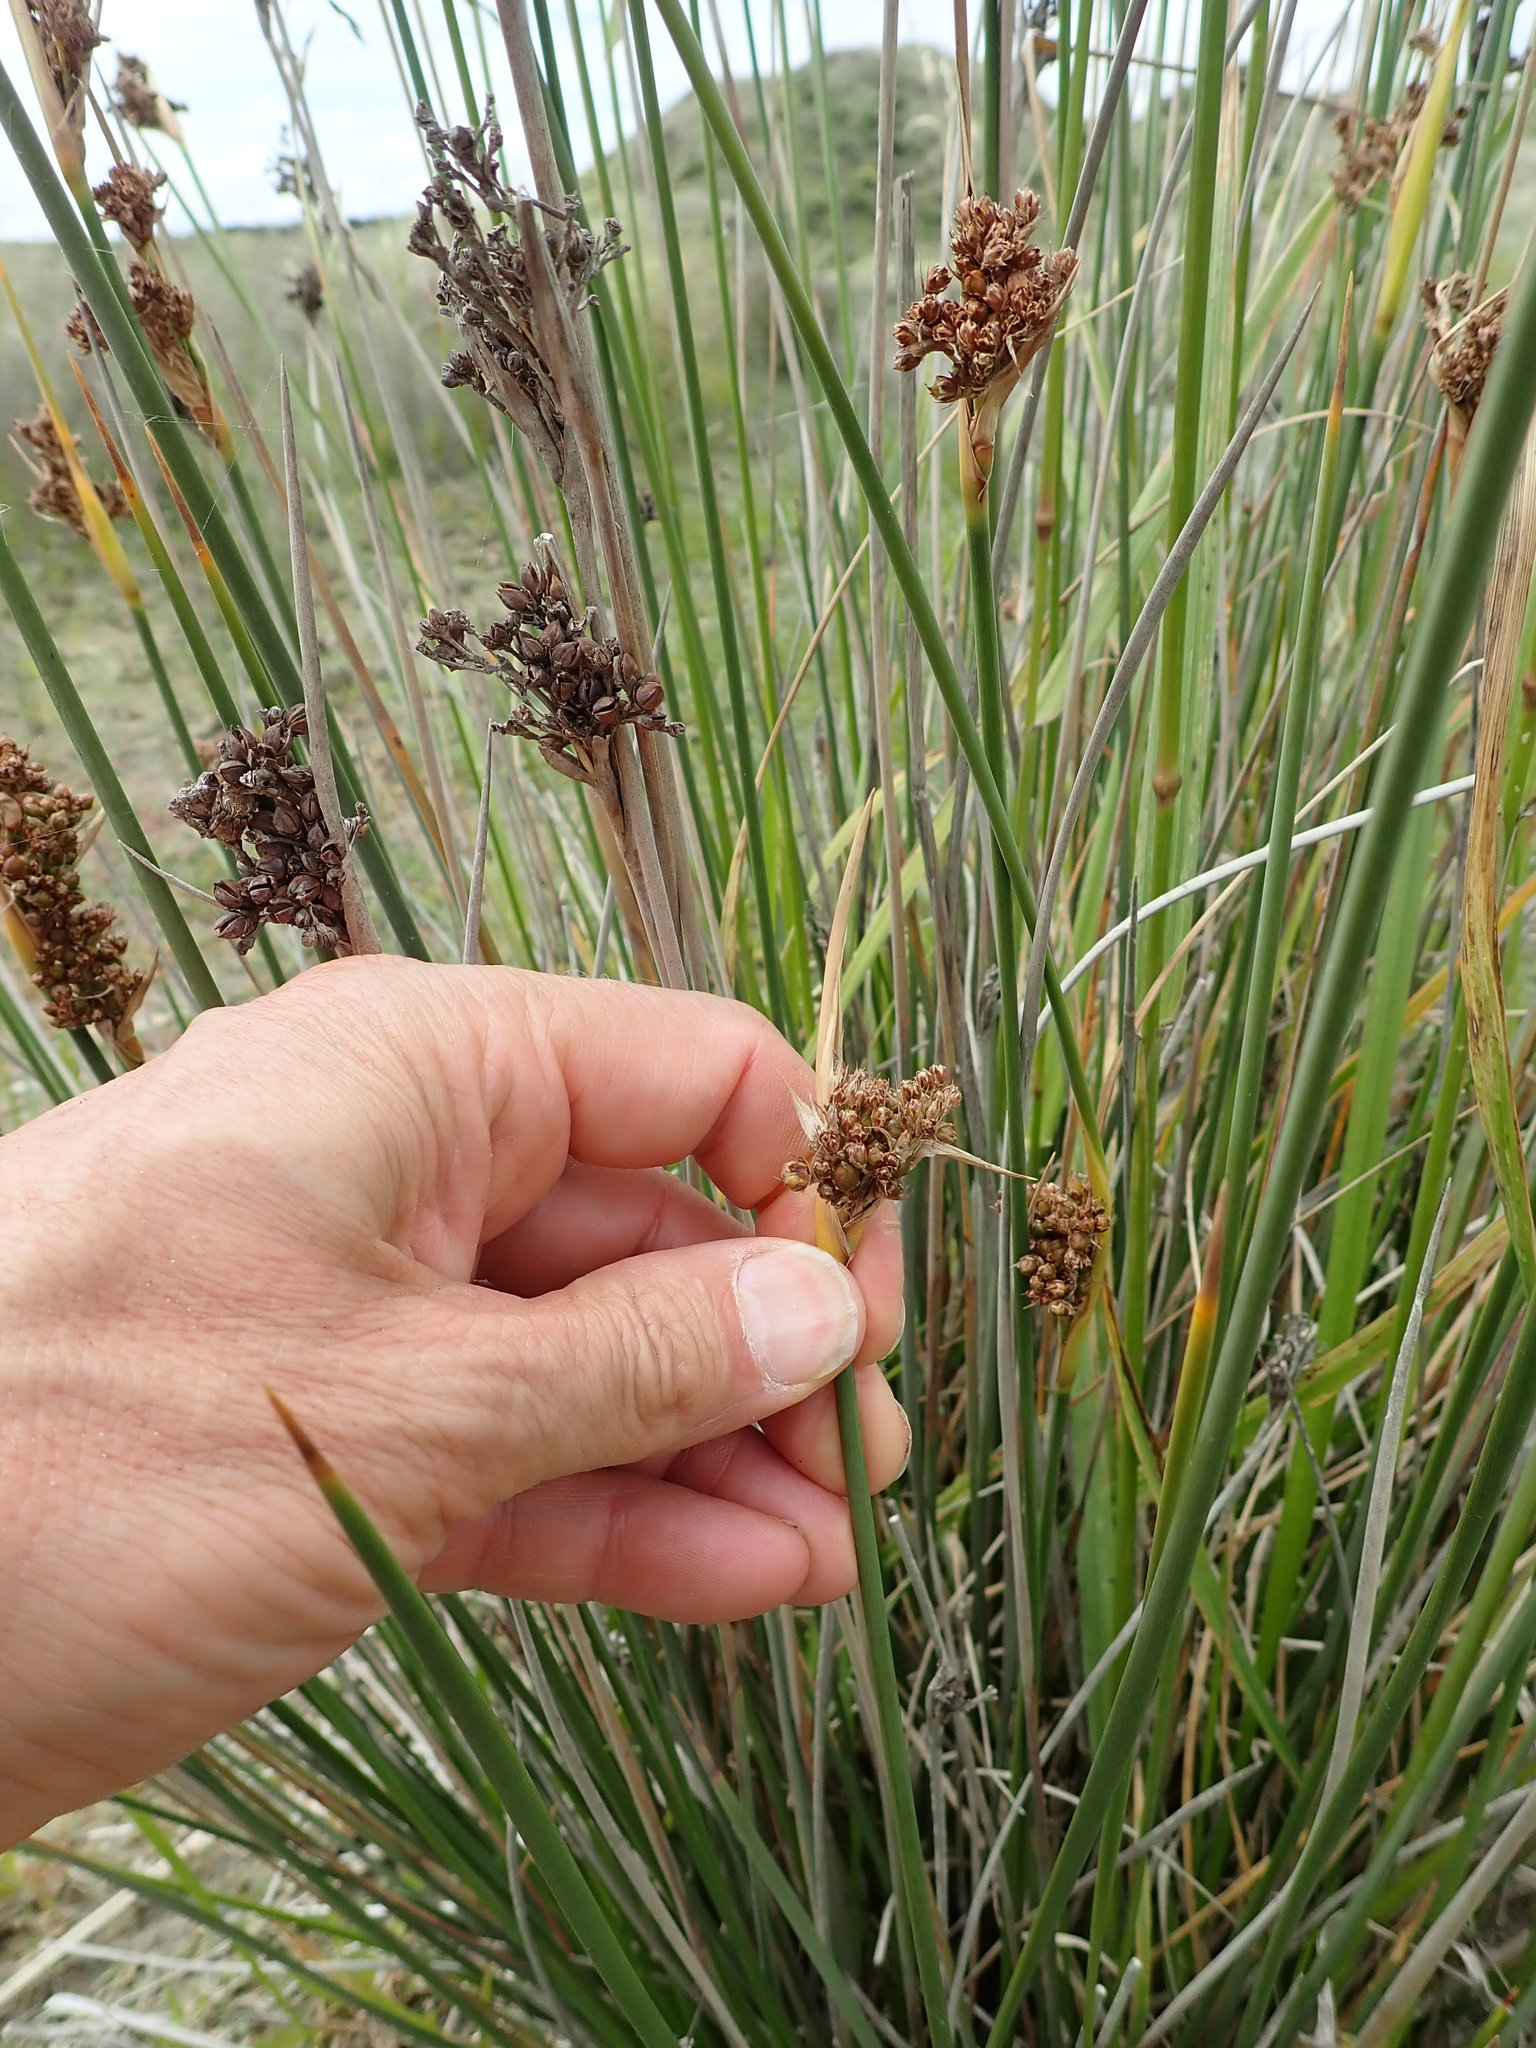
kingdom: Plantae
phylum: Tracheophyta
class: Liliopsida
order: Poales
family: Juncaceae
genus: Juncus
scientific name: Juncus acutus
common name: Sharp rush
